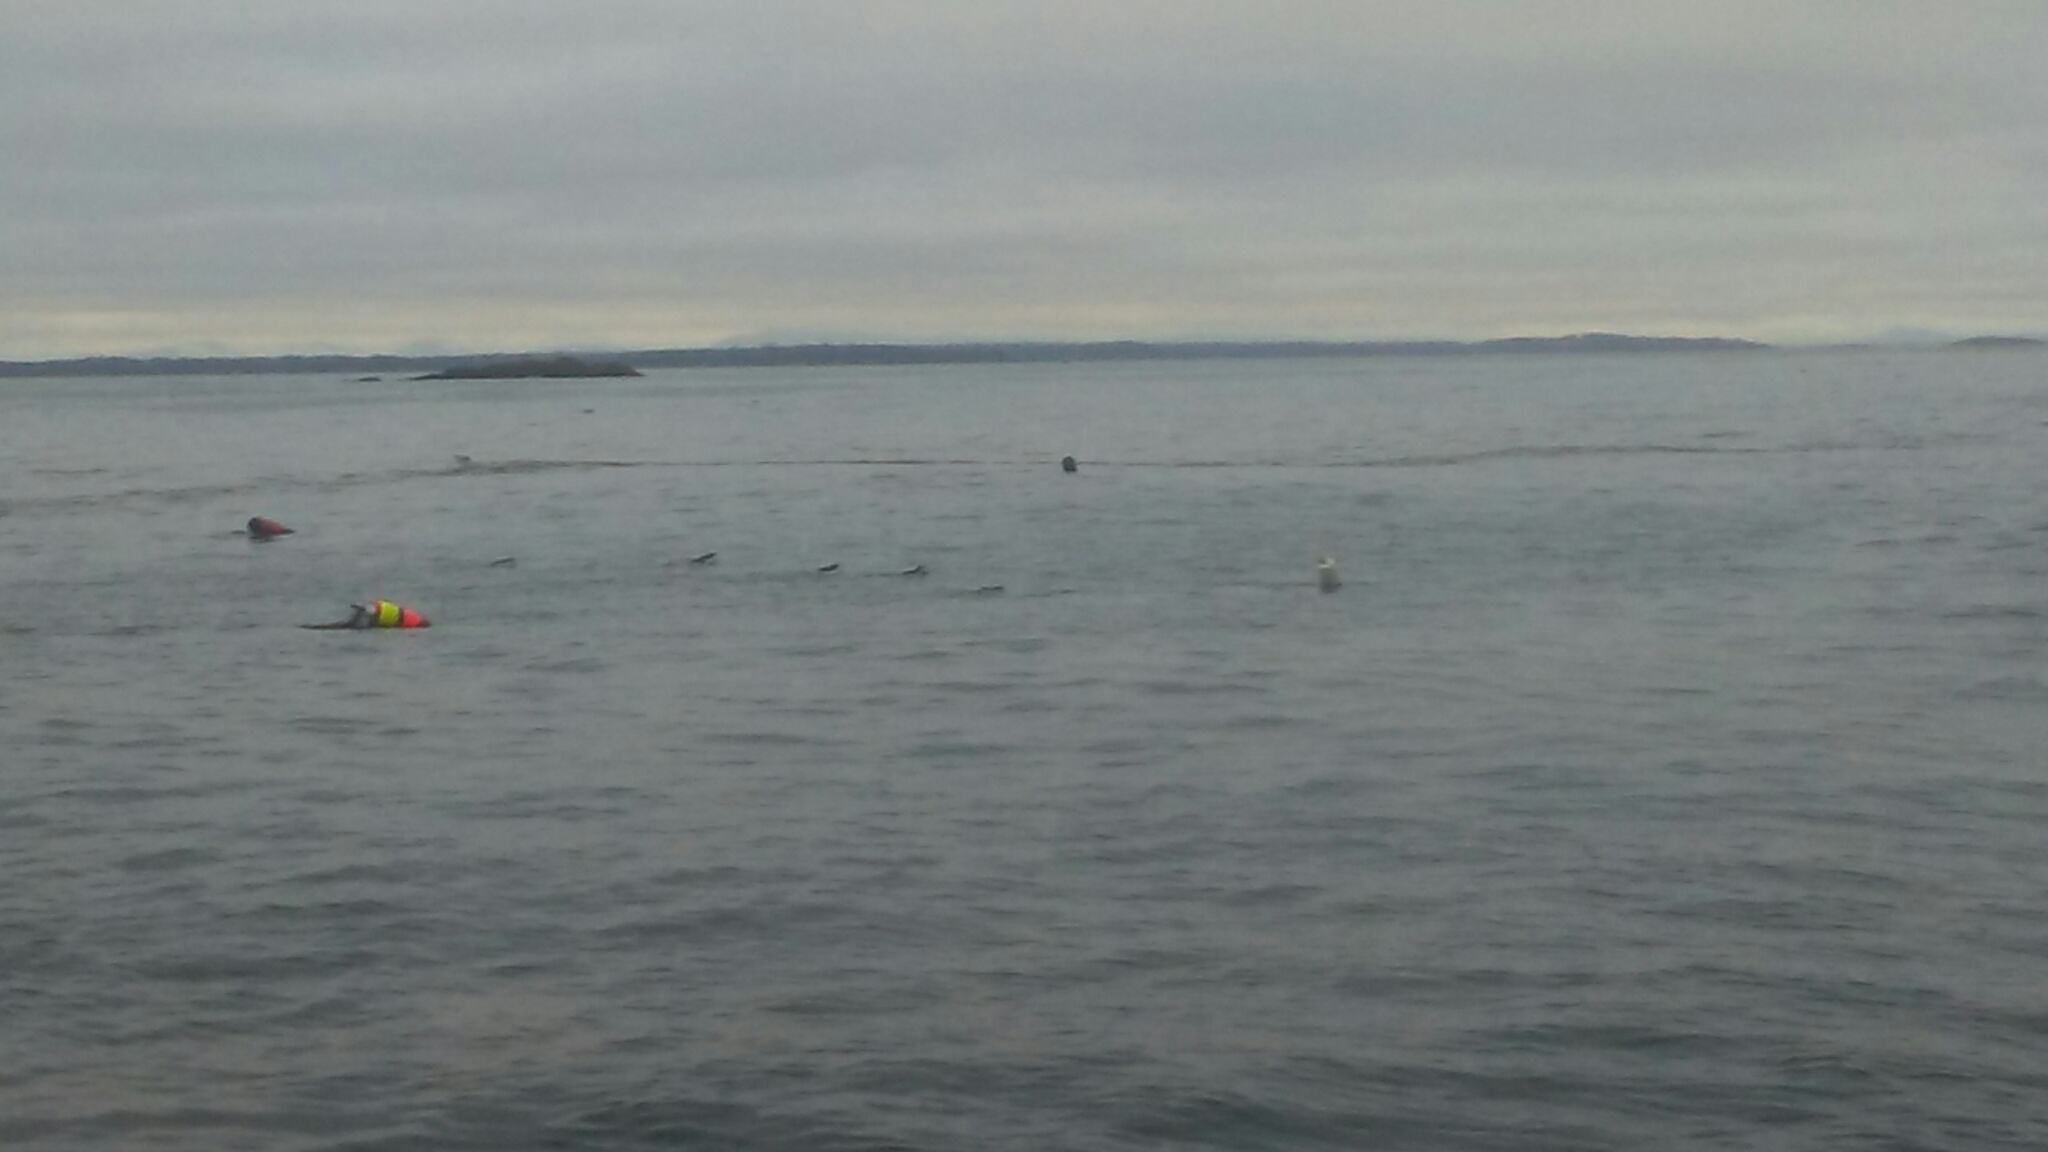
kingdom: Animalia
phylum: Chordata
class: Aves
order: Charadriiformes
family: Alcidae
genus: Alca
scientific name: Alca torda
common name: Razorbill
